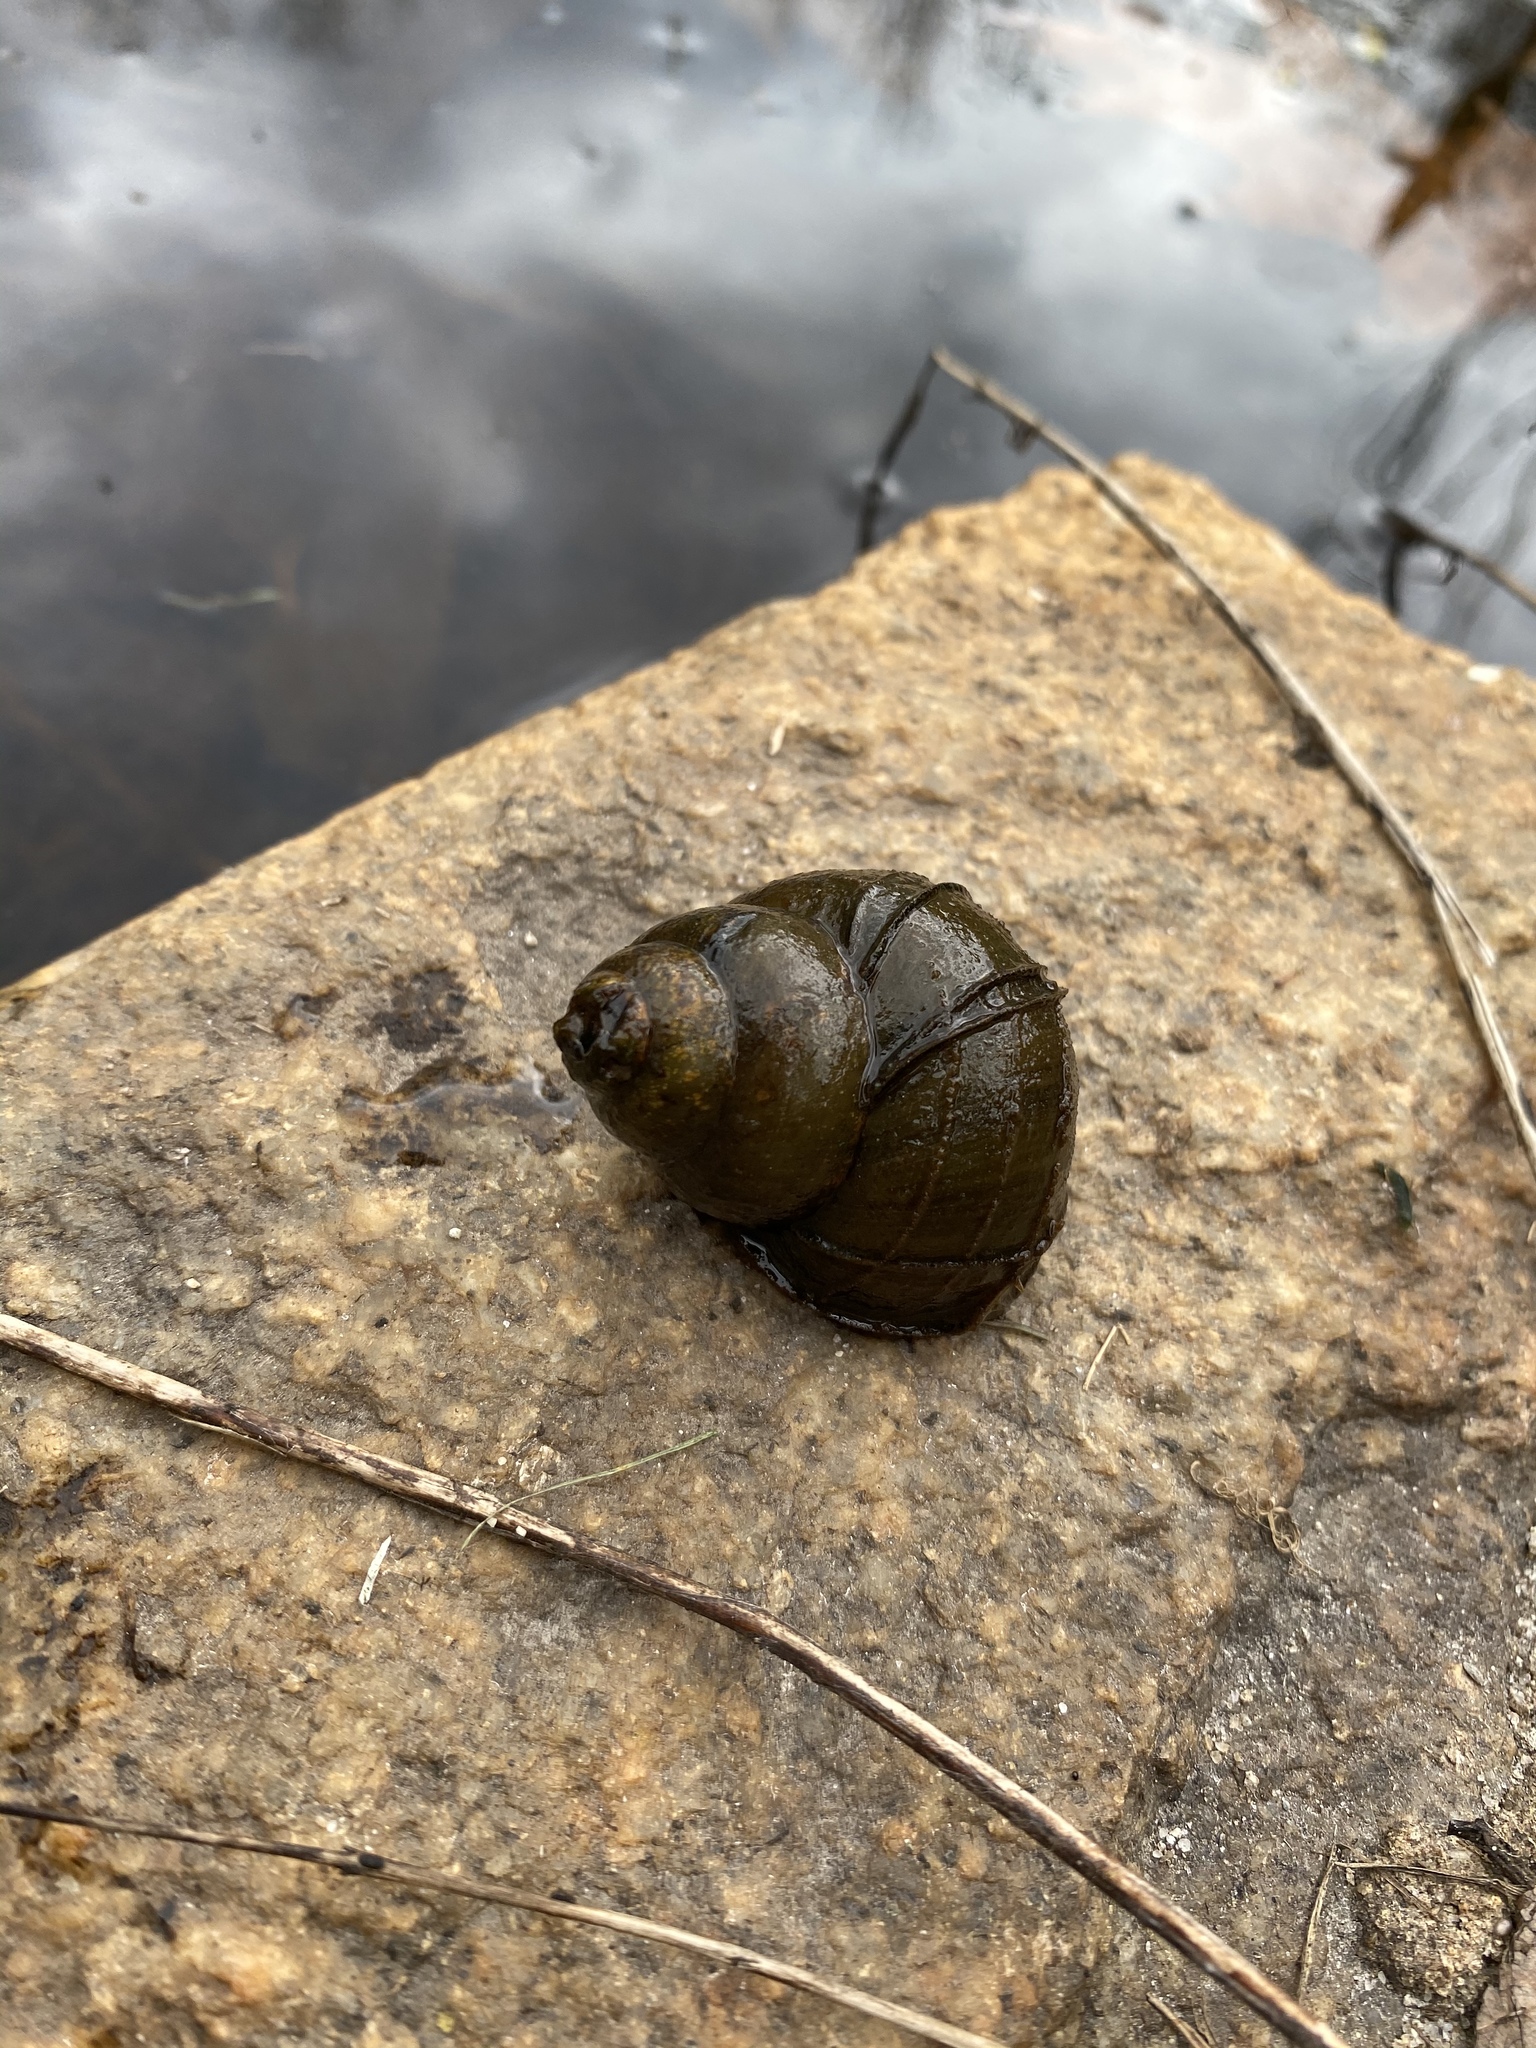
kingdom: Animalia
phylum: Mollusca
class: Gastropoda
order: Architaenioglossa
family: Viviparidae
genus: Cipangopaludina
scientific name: Cipangopaludina chinensis
